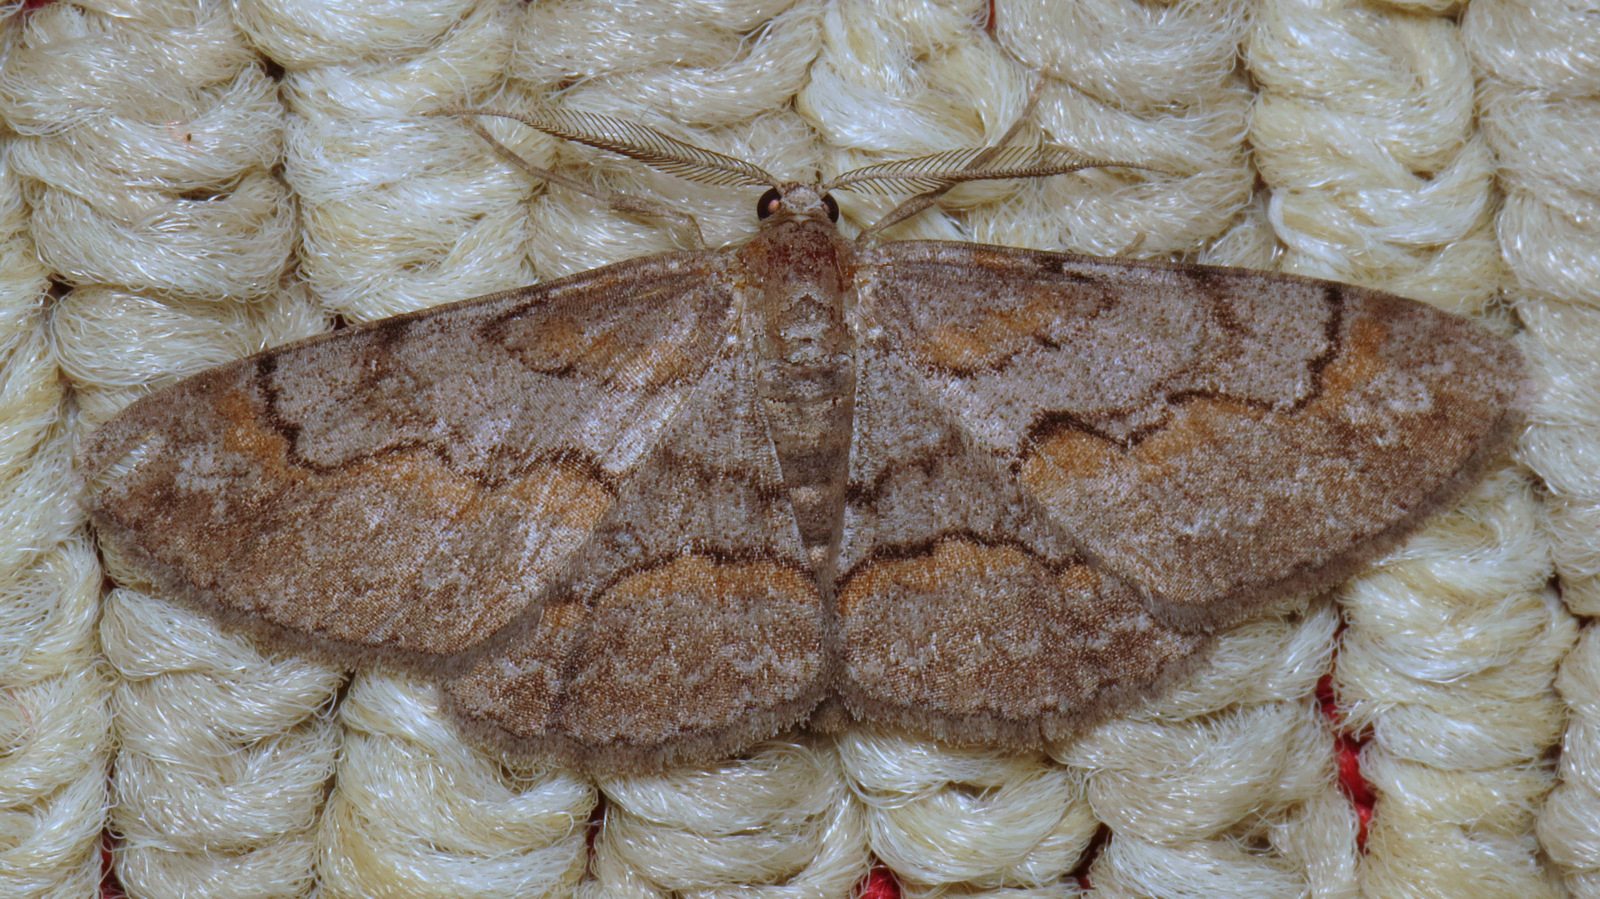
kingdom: Animalia
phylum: Arthropoda
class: Insecta
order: Lepidoptera
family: Geometridae
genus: Iridopsis
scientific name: Iridopsis vellivolata
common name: Large purplish gray
